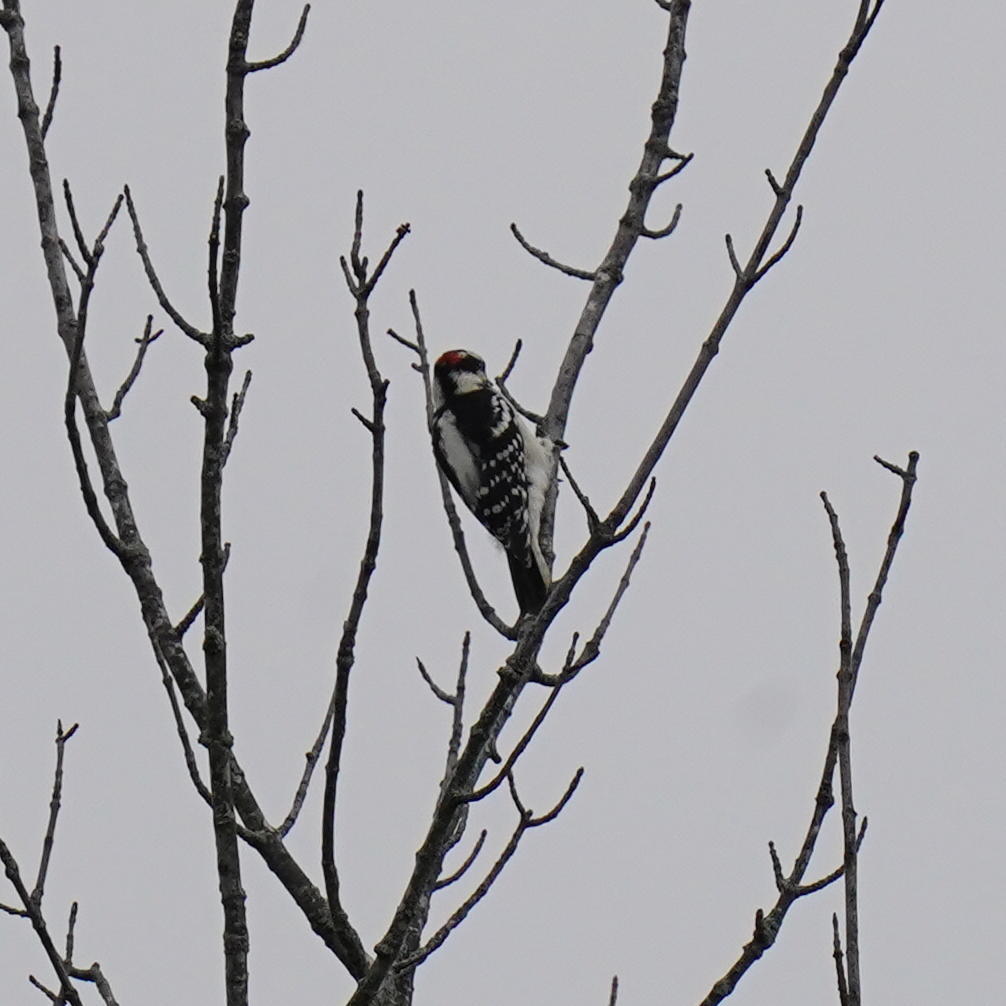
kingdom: Animalia
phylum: Chordata
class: Aves
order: Piciformes
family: Picidae
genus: Dryobates
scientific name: Dryobates pubescens
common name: Downy woodpecker
